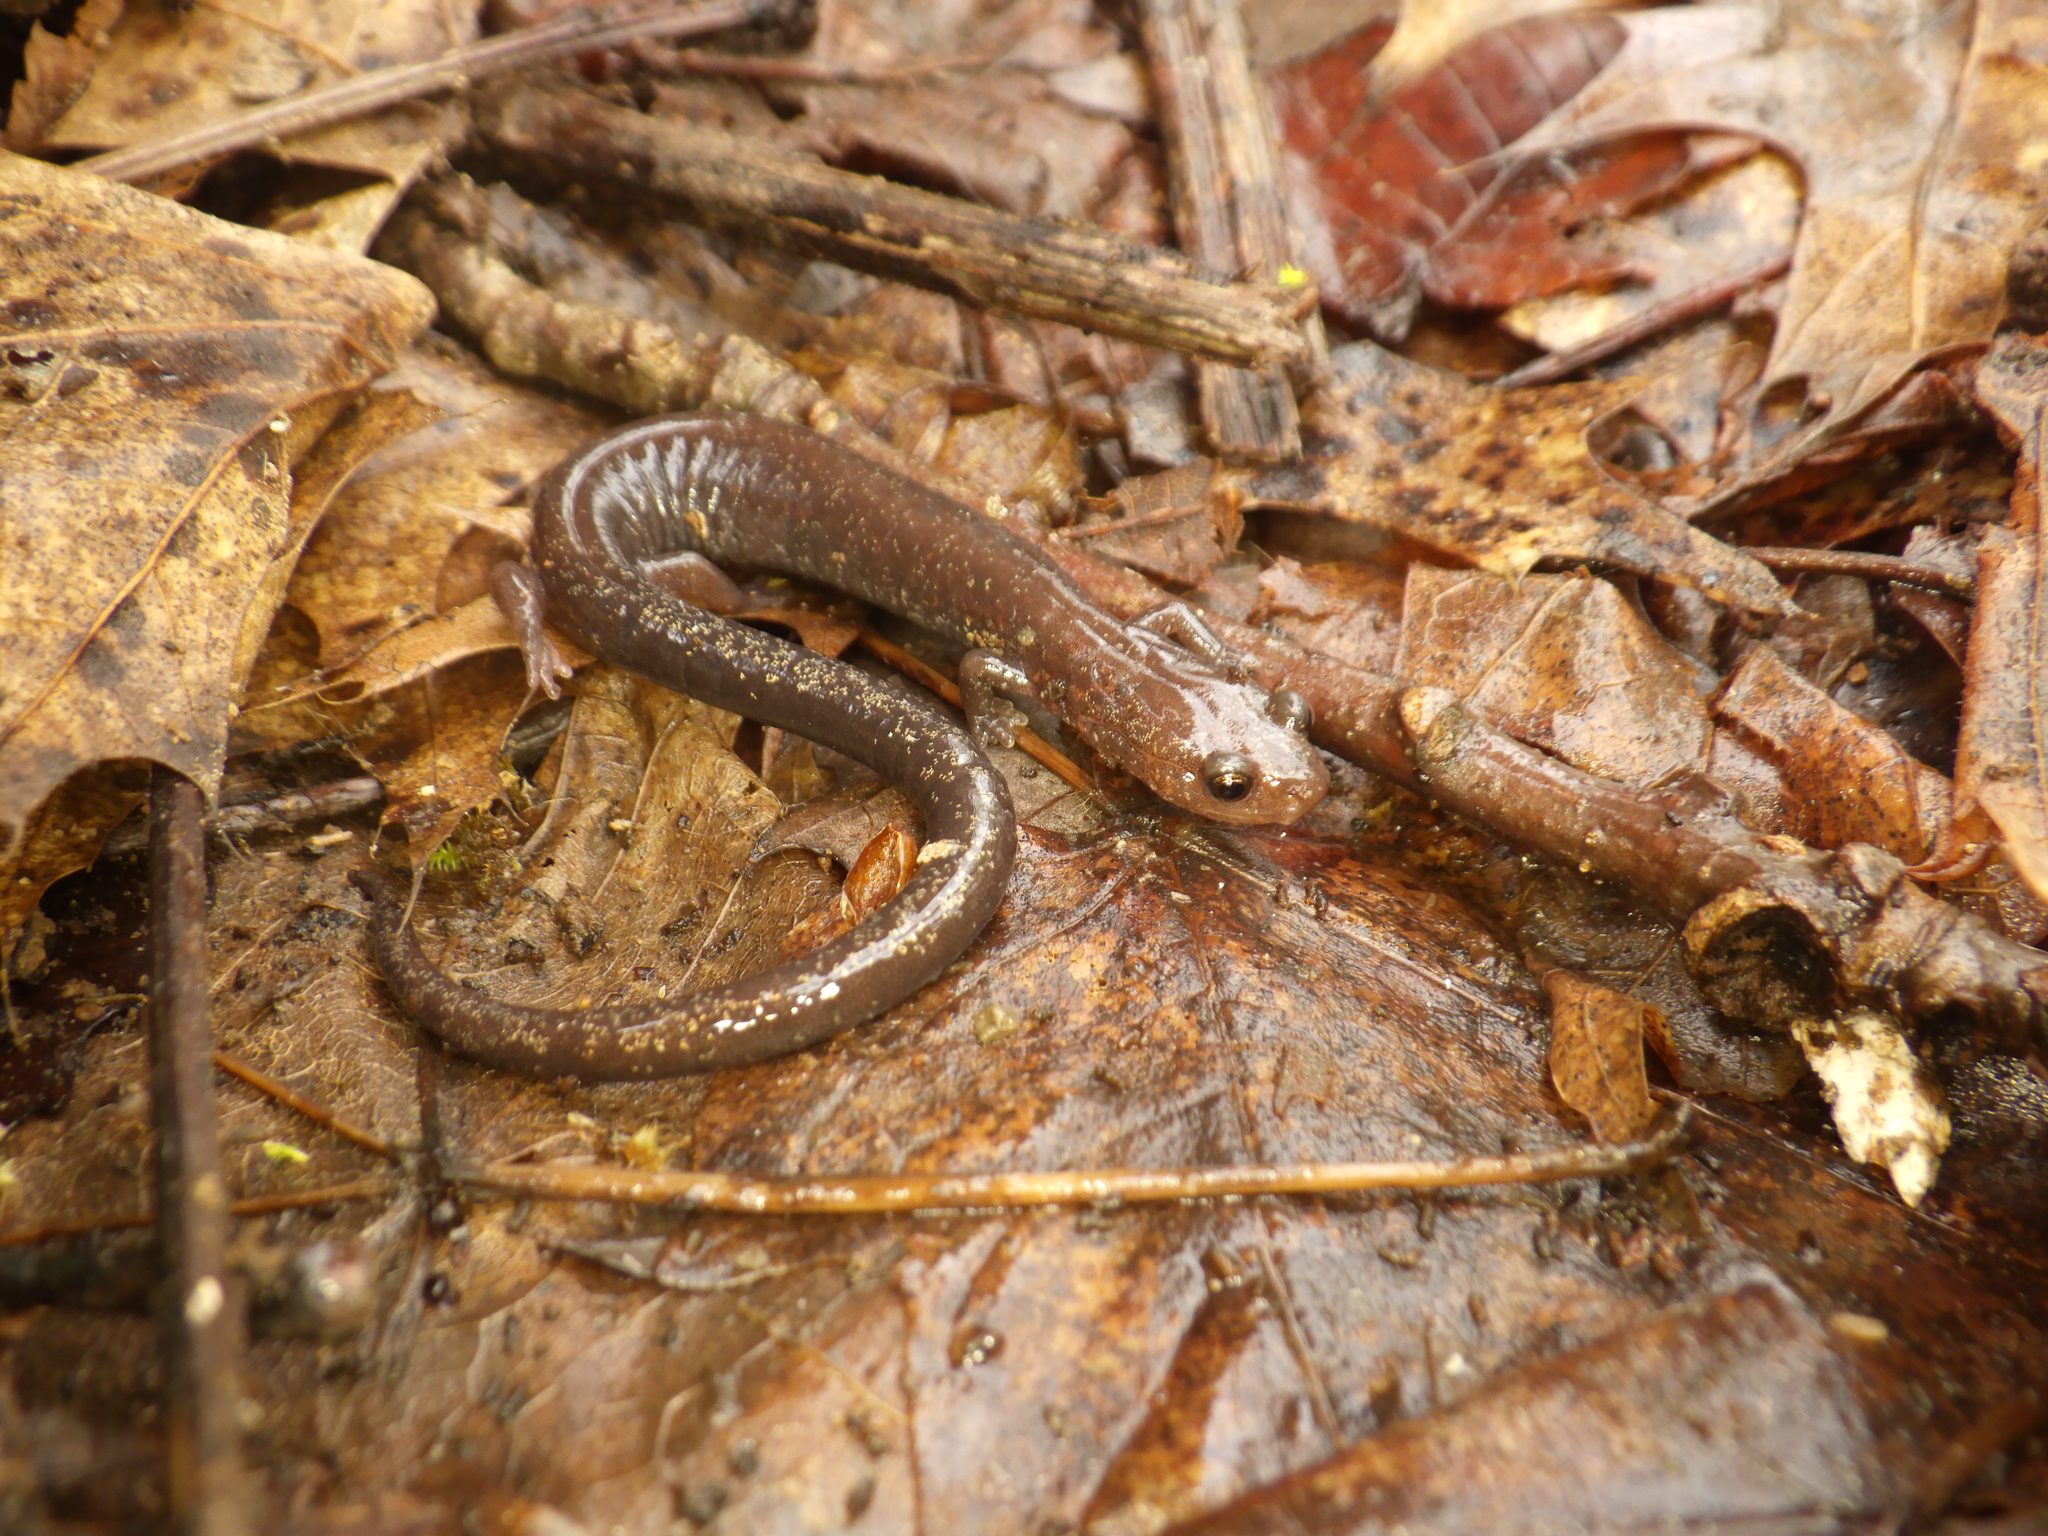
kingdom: Animalia
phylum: Chordata
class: Amphibia
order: Caudata
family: Plethodontidae
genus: Plethodon
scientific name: Plethodon dorsalis
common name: Northern zigzag salamander
